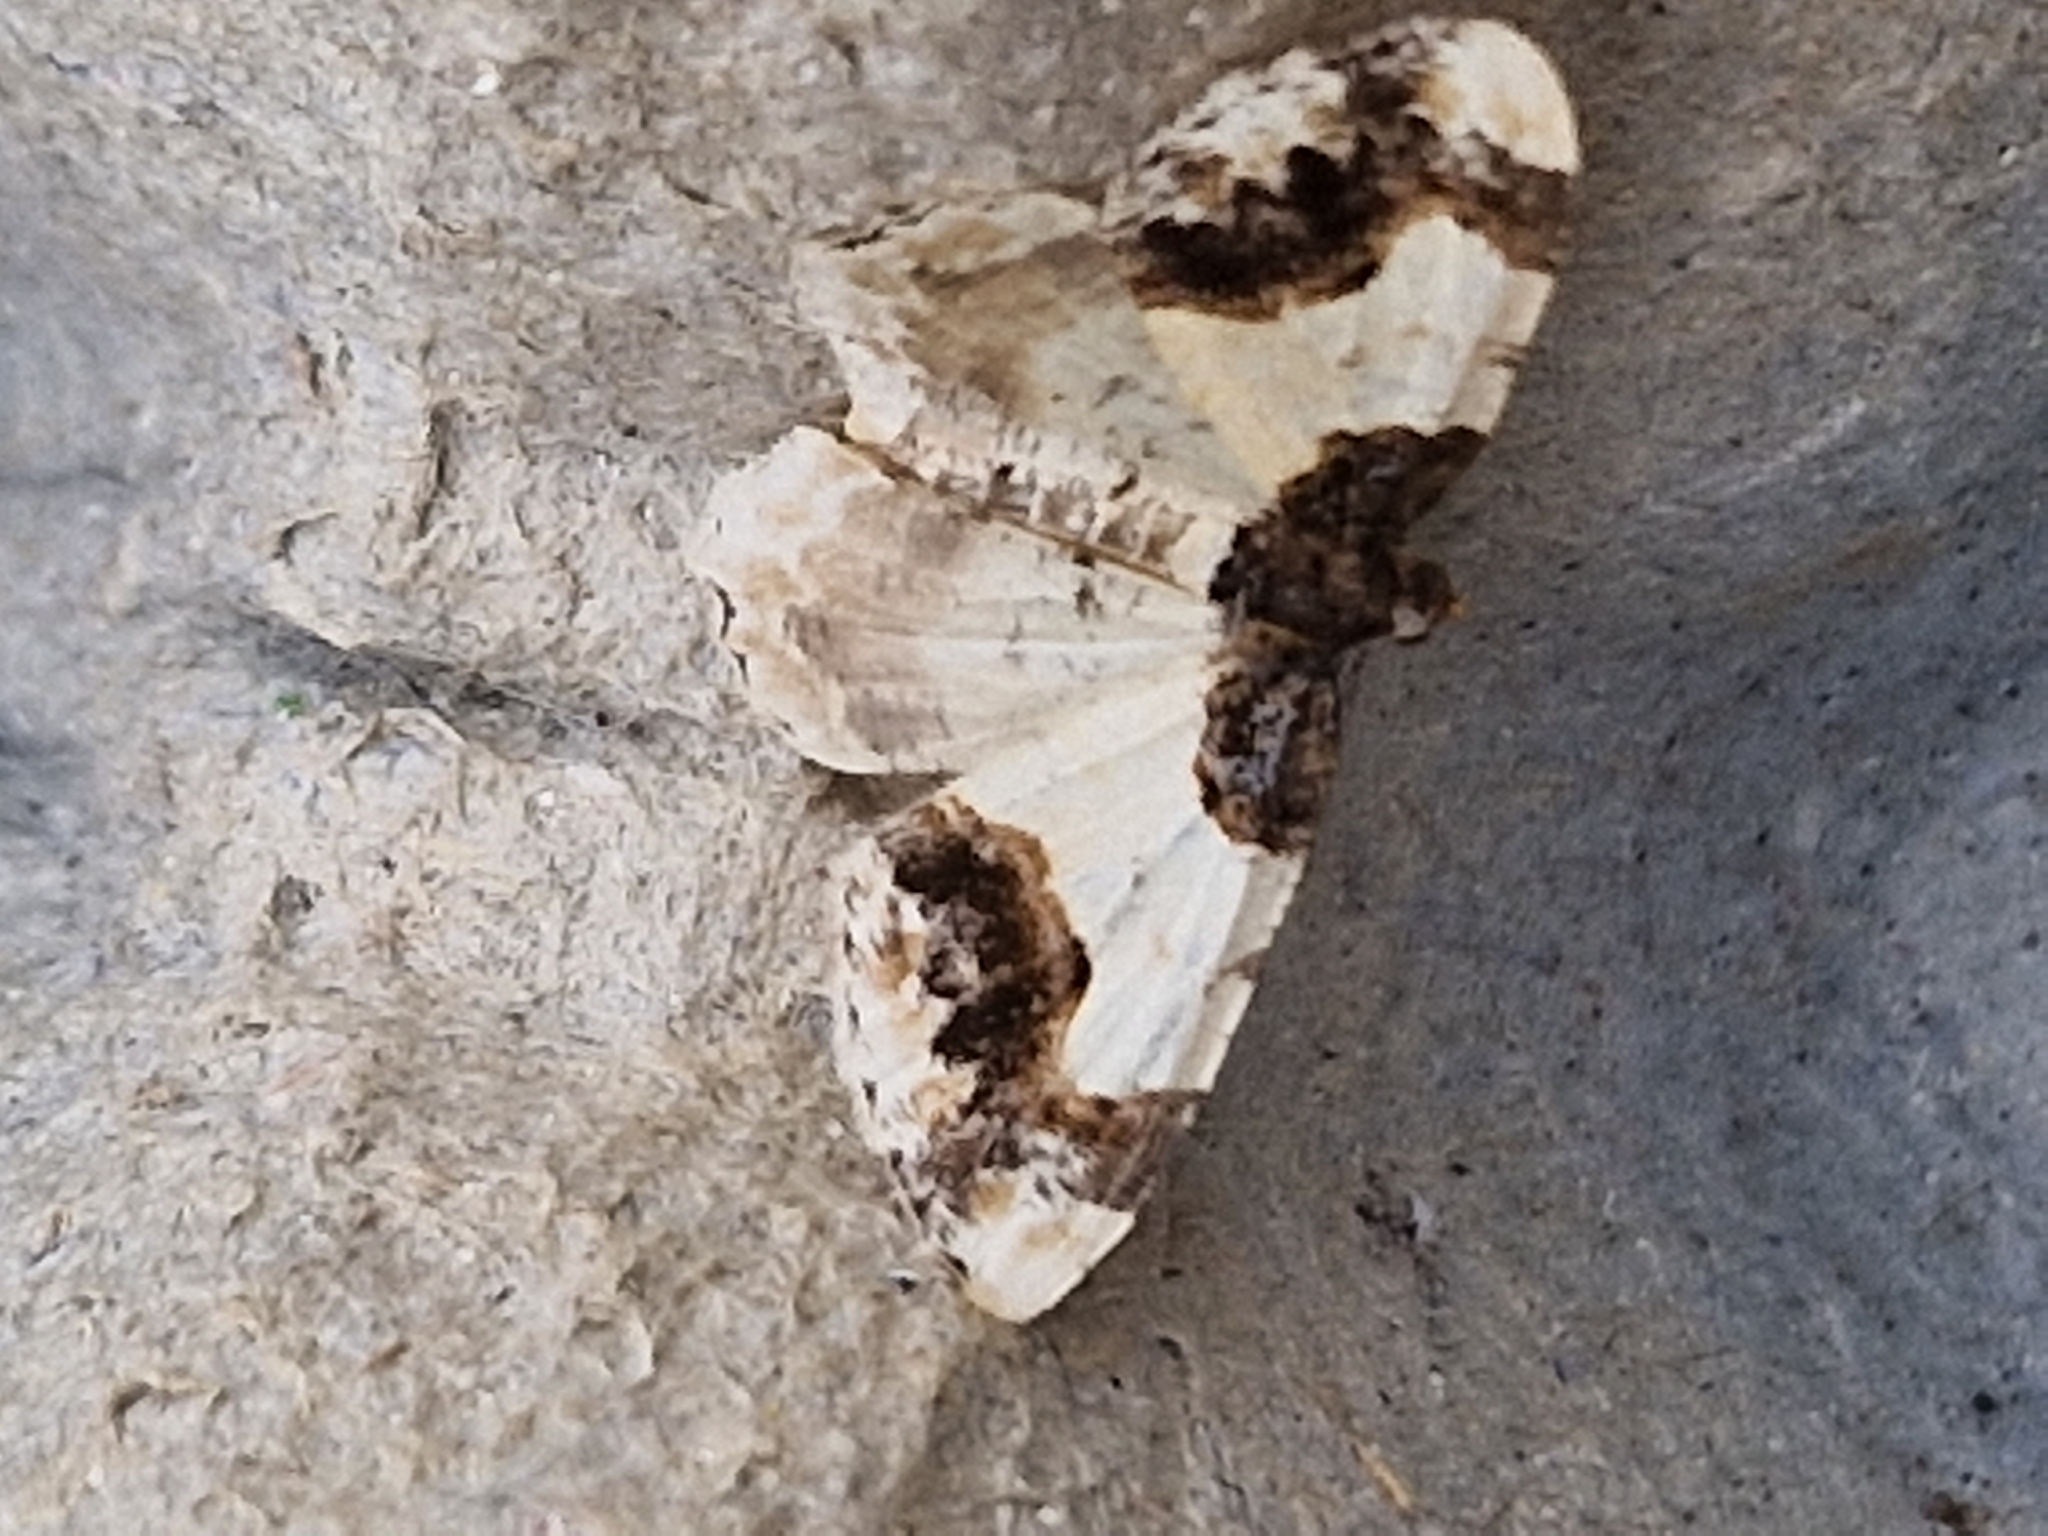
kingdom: Animalia
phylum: Arthropoda
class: Insecta
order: Lepidoptera
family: Geometridae
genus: Ligdia
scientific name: Ligdia adustata
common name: Scorched carpet
